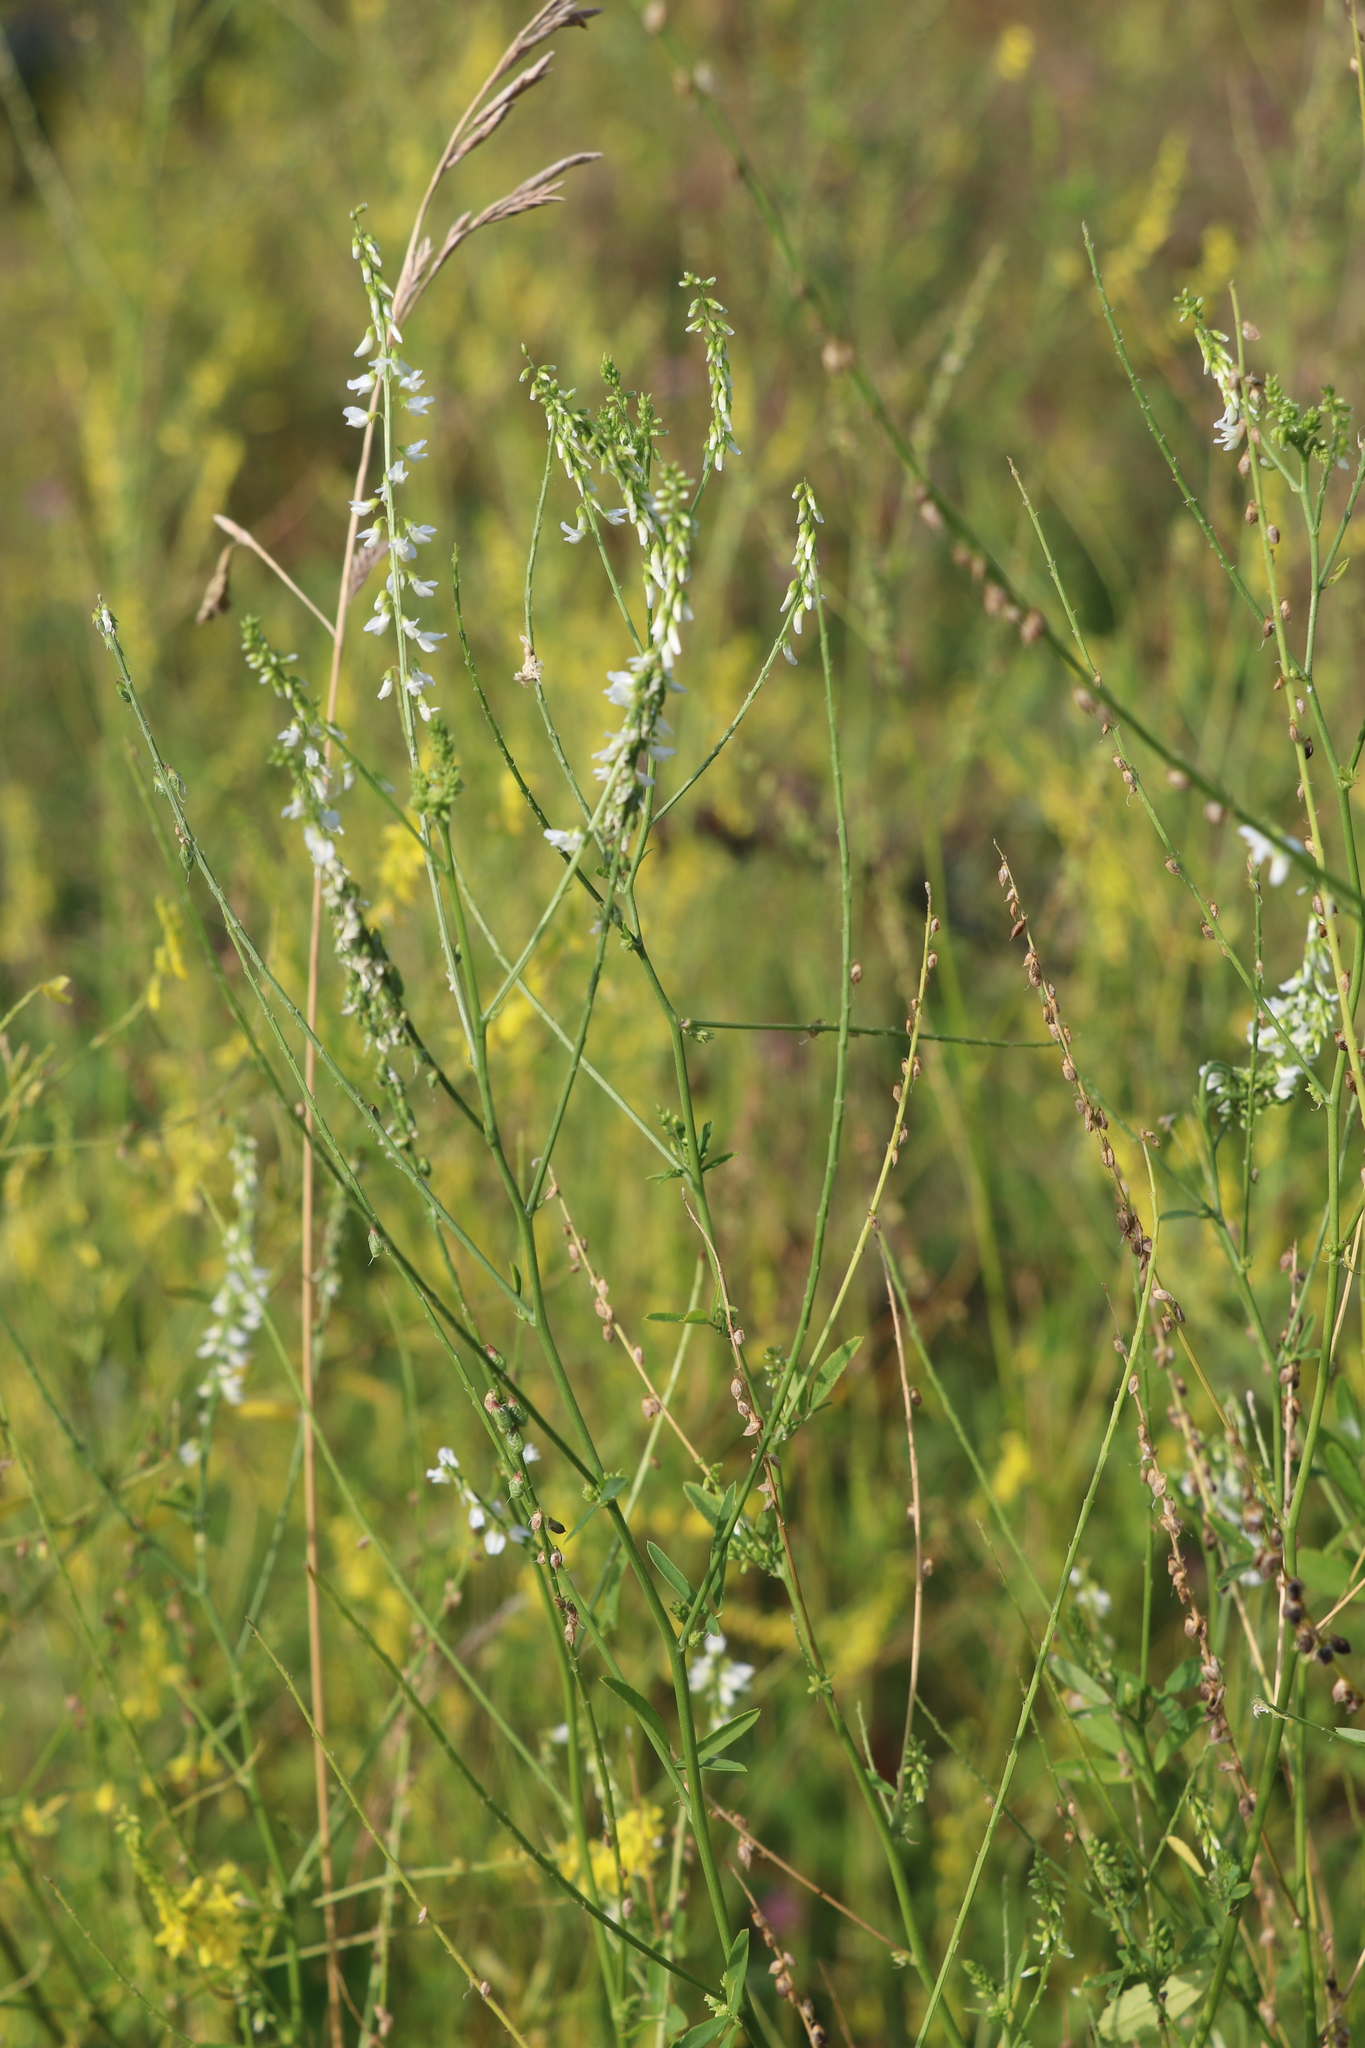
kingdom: Plantae
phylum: Tracheophyta
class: Magnoliopsida
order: Fabales
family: Fabaceae
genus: Melilotus
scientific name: Melilotus albus
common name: White melilot
